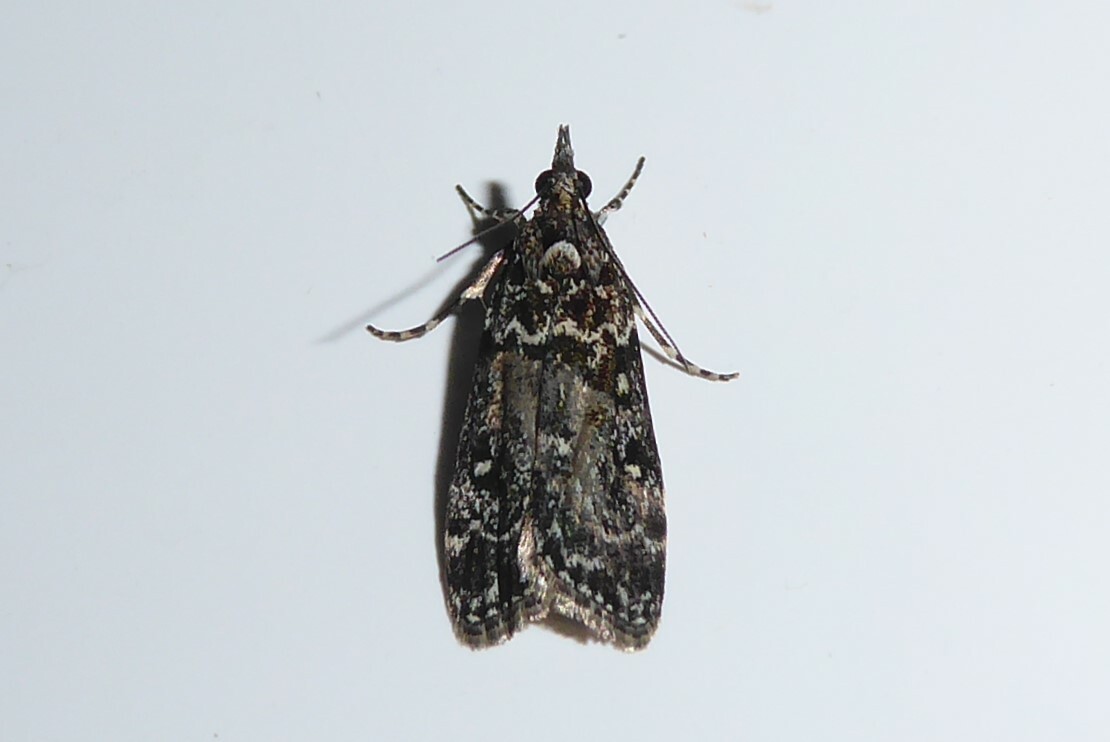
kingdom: Animalia
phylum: Arthropoda
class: Insecta
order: Lepidoptera
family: Crambidae
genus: Eudonia
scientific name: Eudonia philerga
